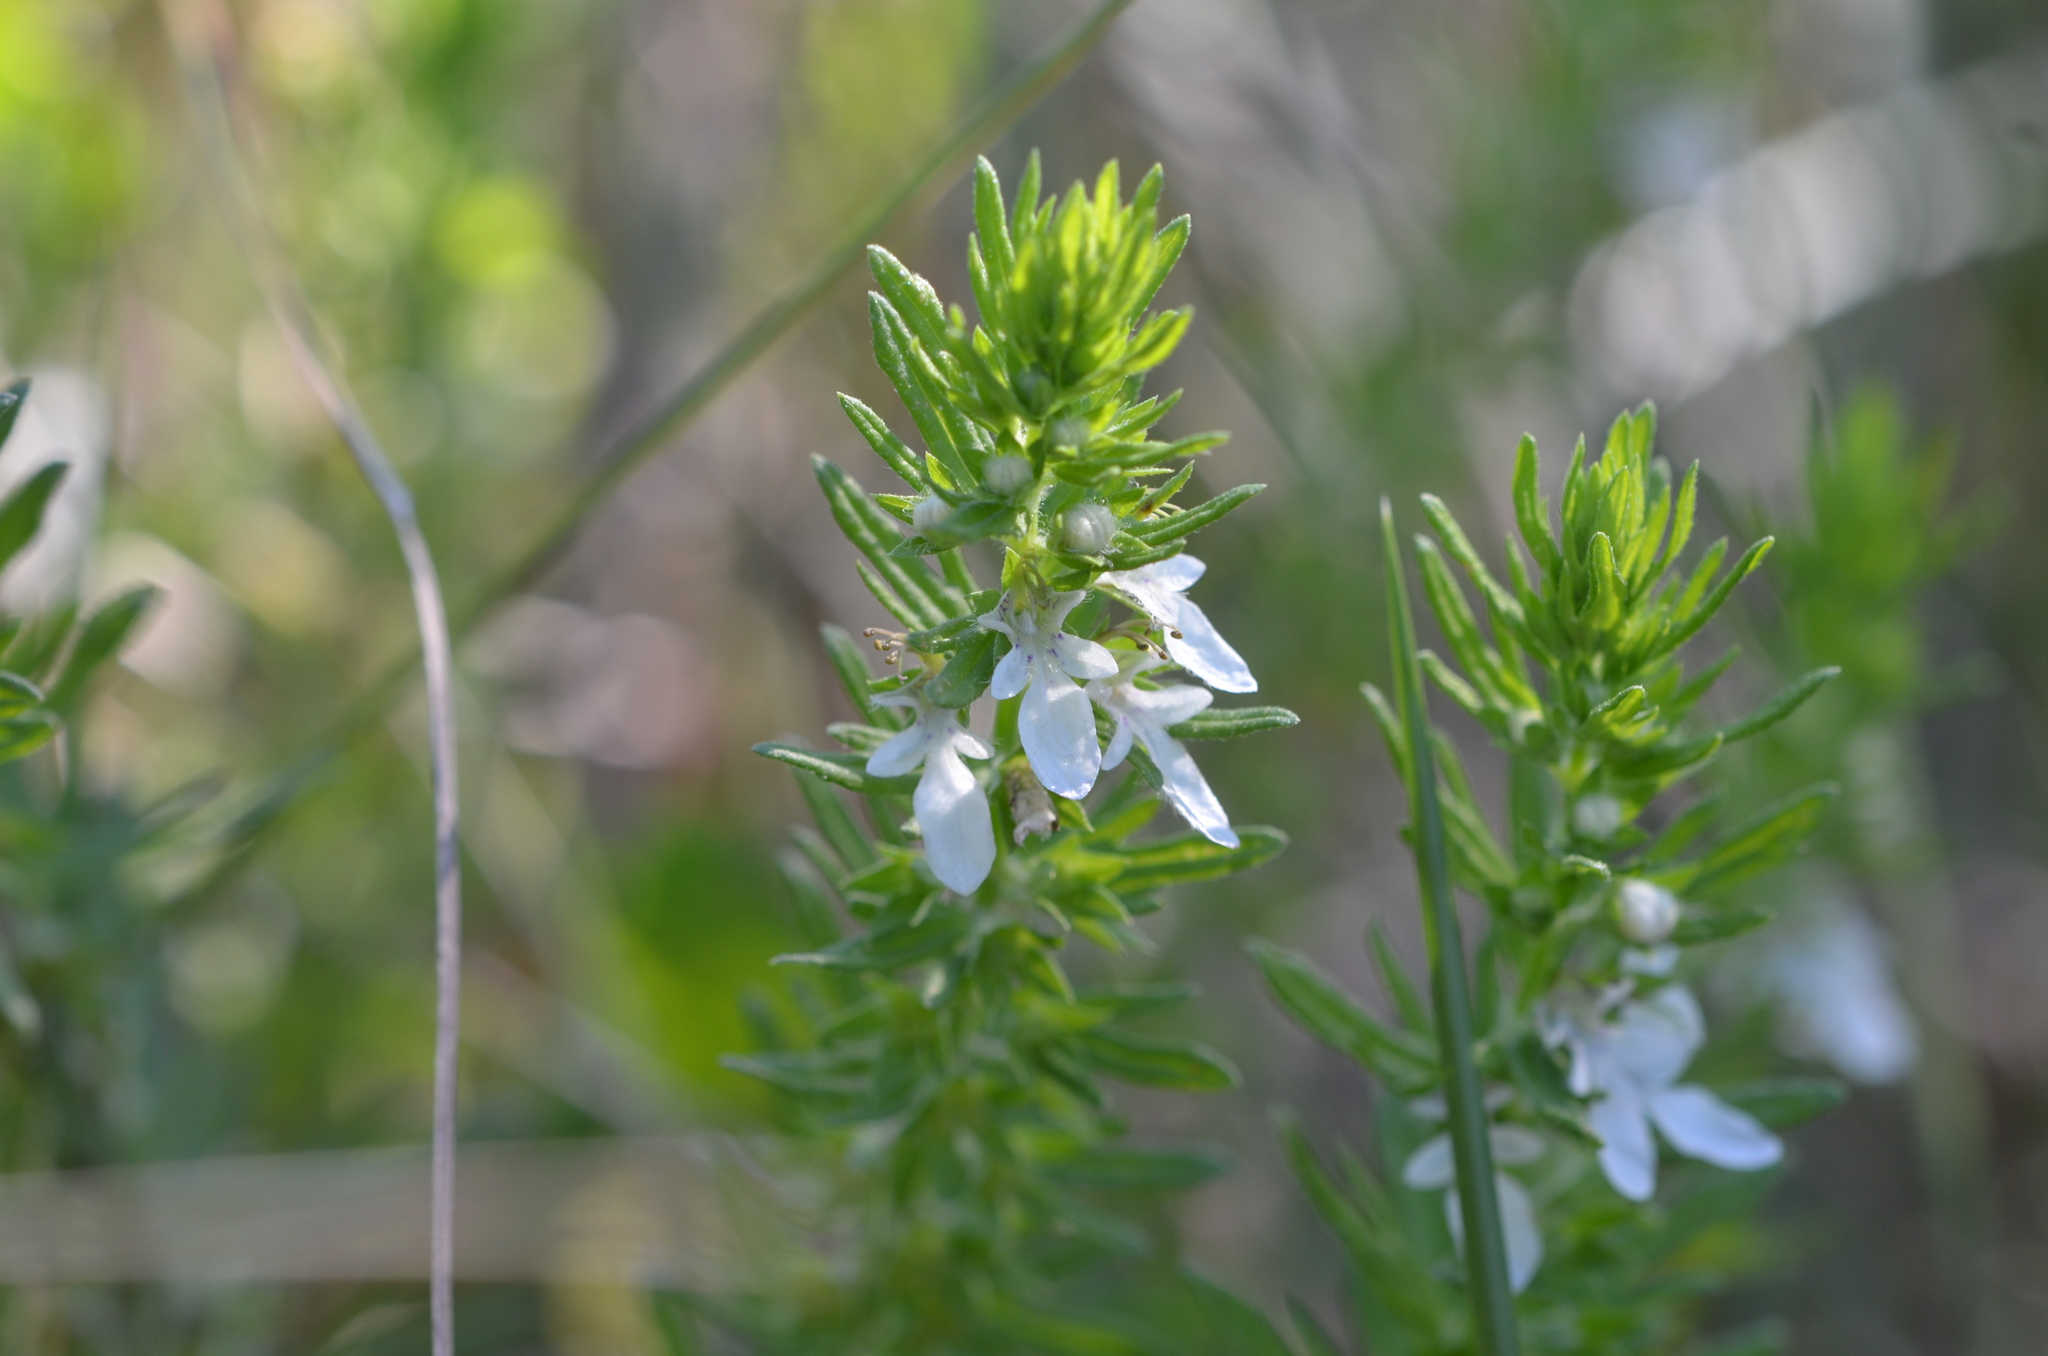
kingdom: Plantae
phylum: Tracheophyta
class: Magnoliopsida
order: Lamiales
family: Lamiaceae
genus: Teucrium
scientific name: Teucrium cubense
